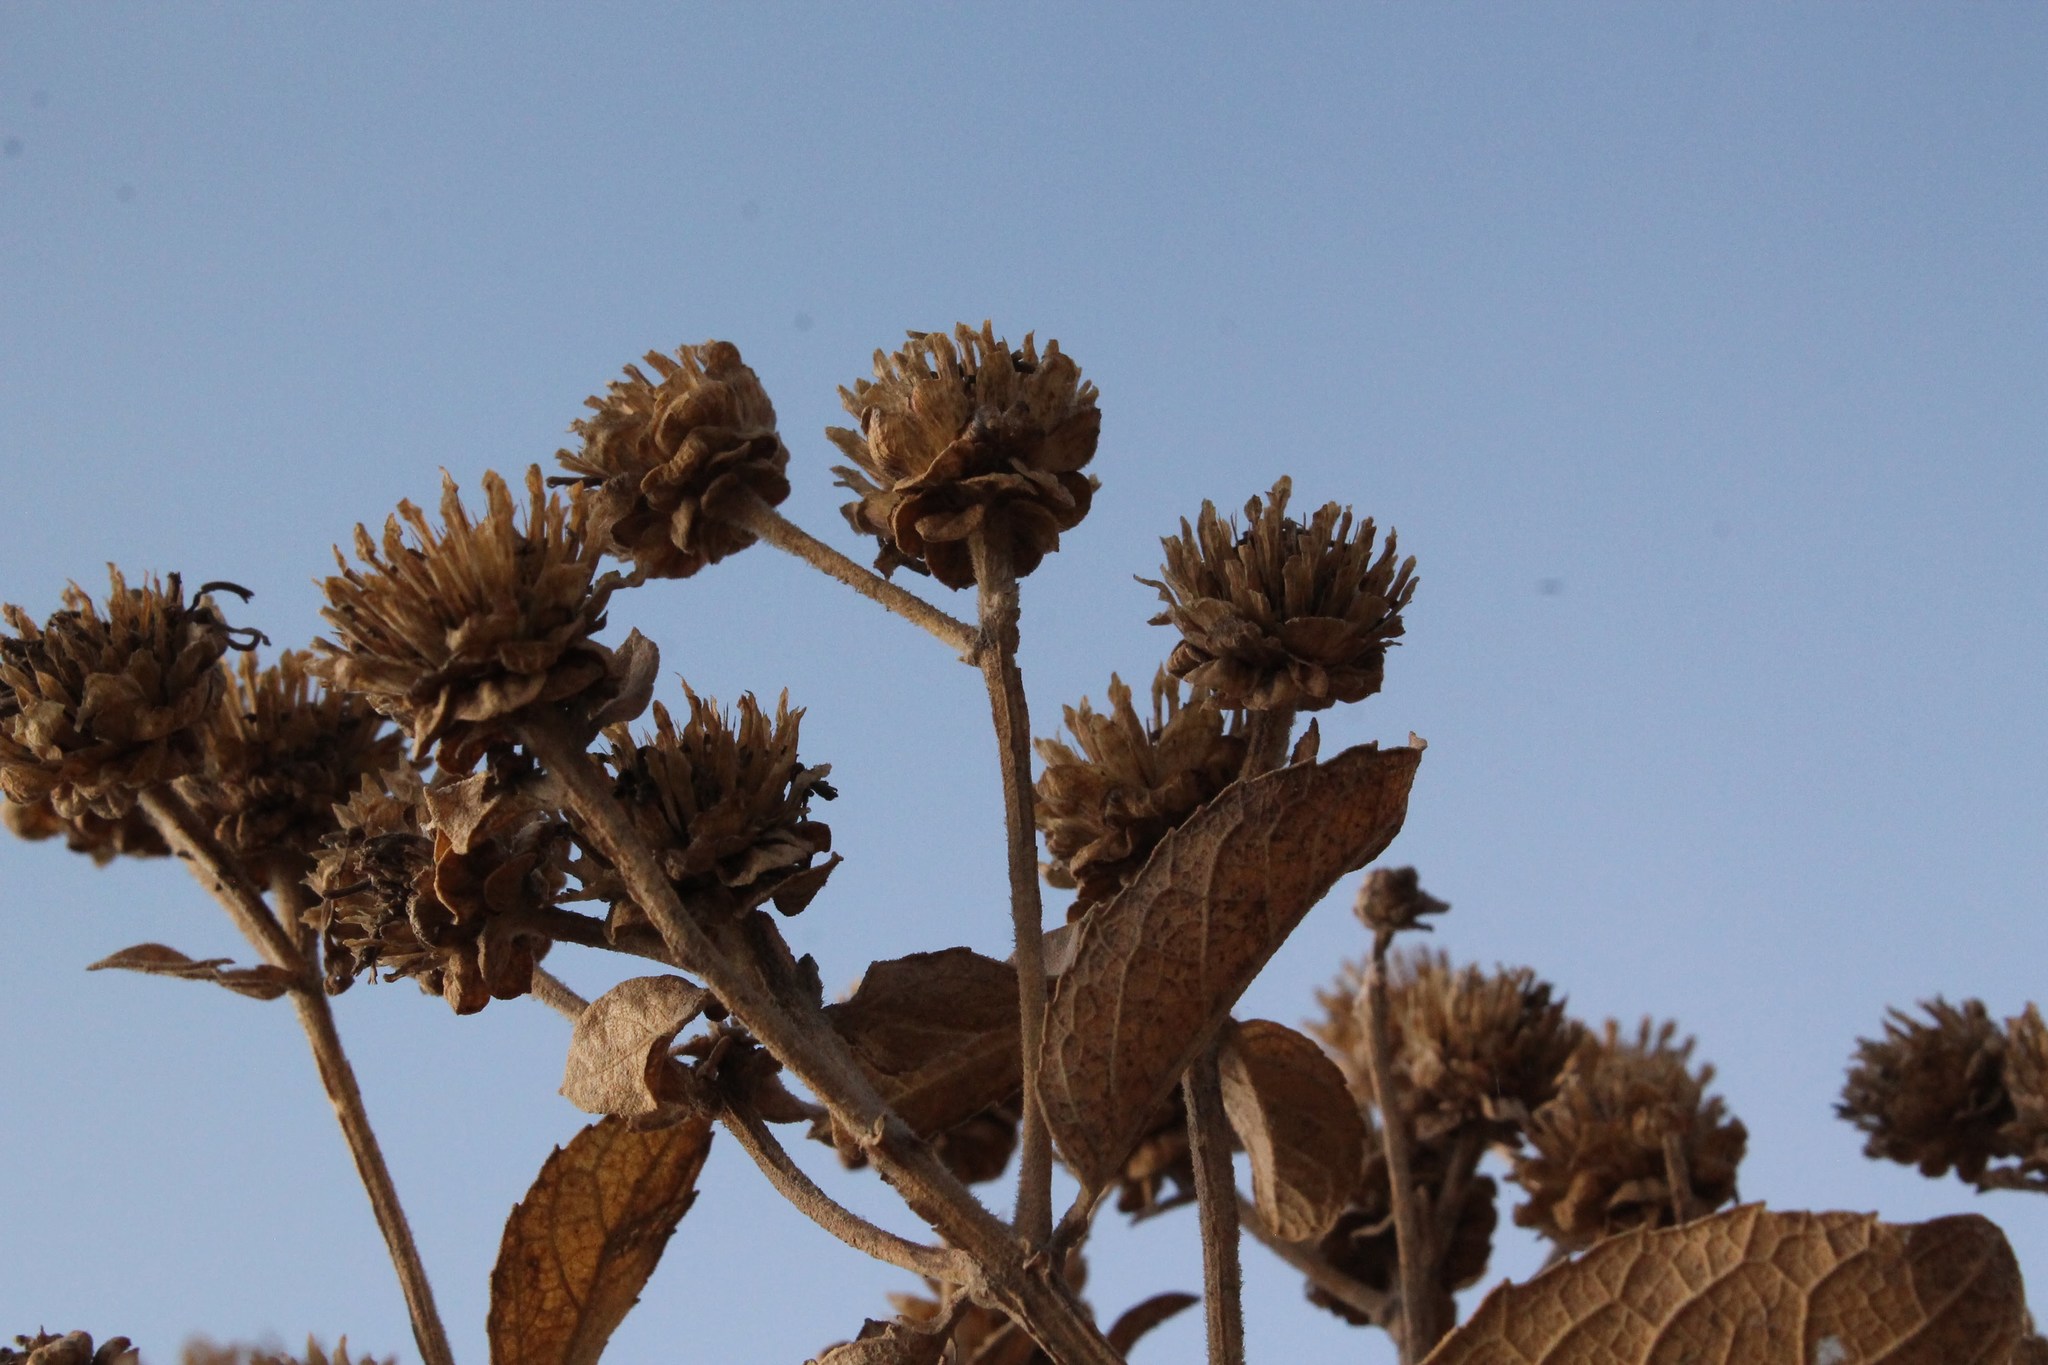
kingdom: Plantae
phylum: Tracheophyta
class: Magnoliopsida
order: Asterales
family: Asteraceae
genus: Verbesina
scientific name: Verbesina sphaerocephala
